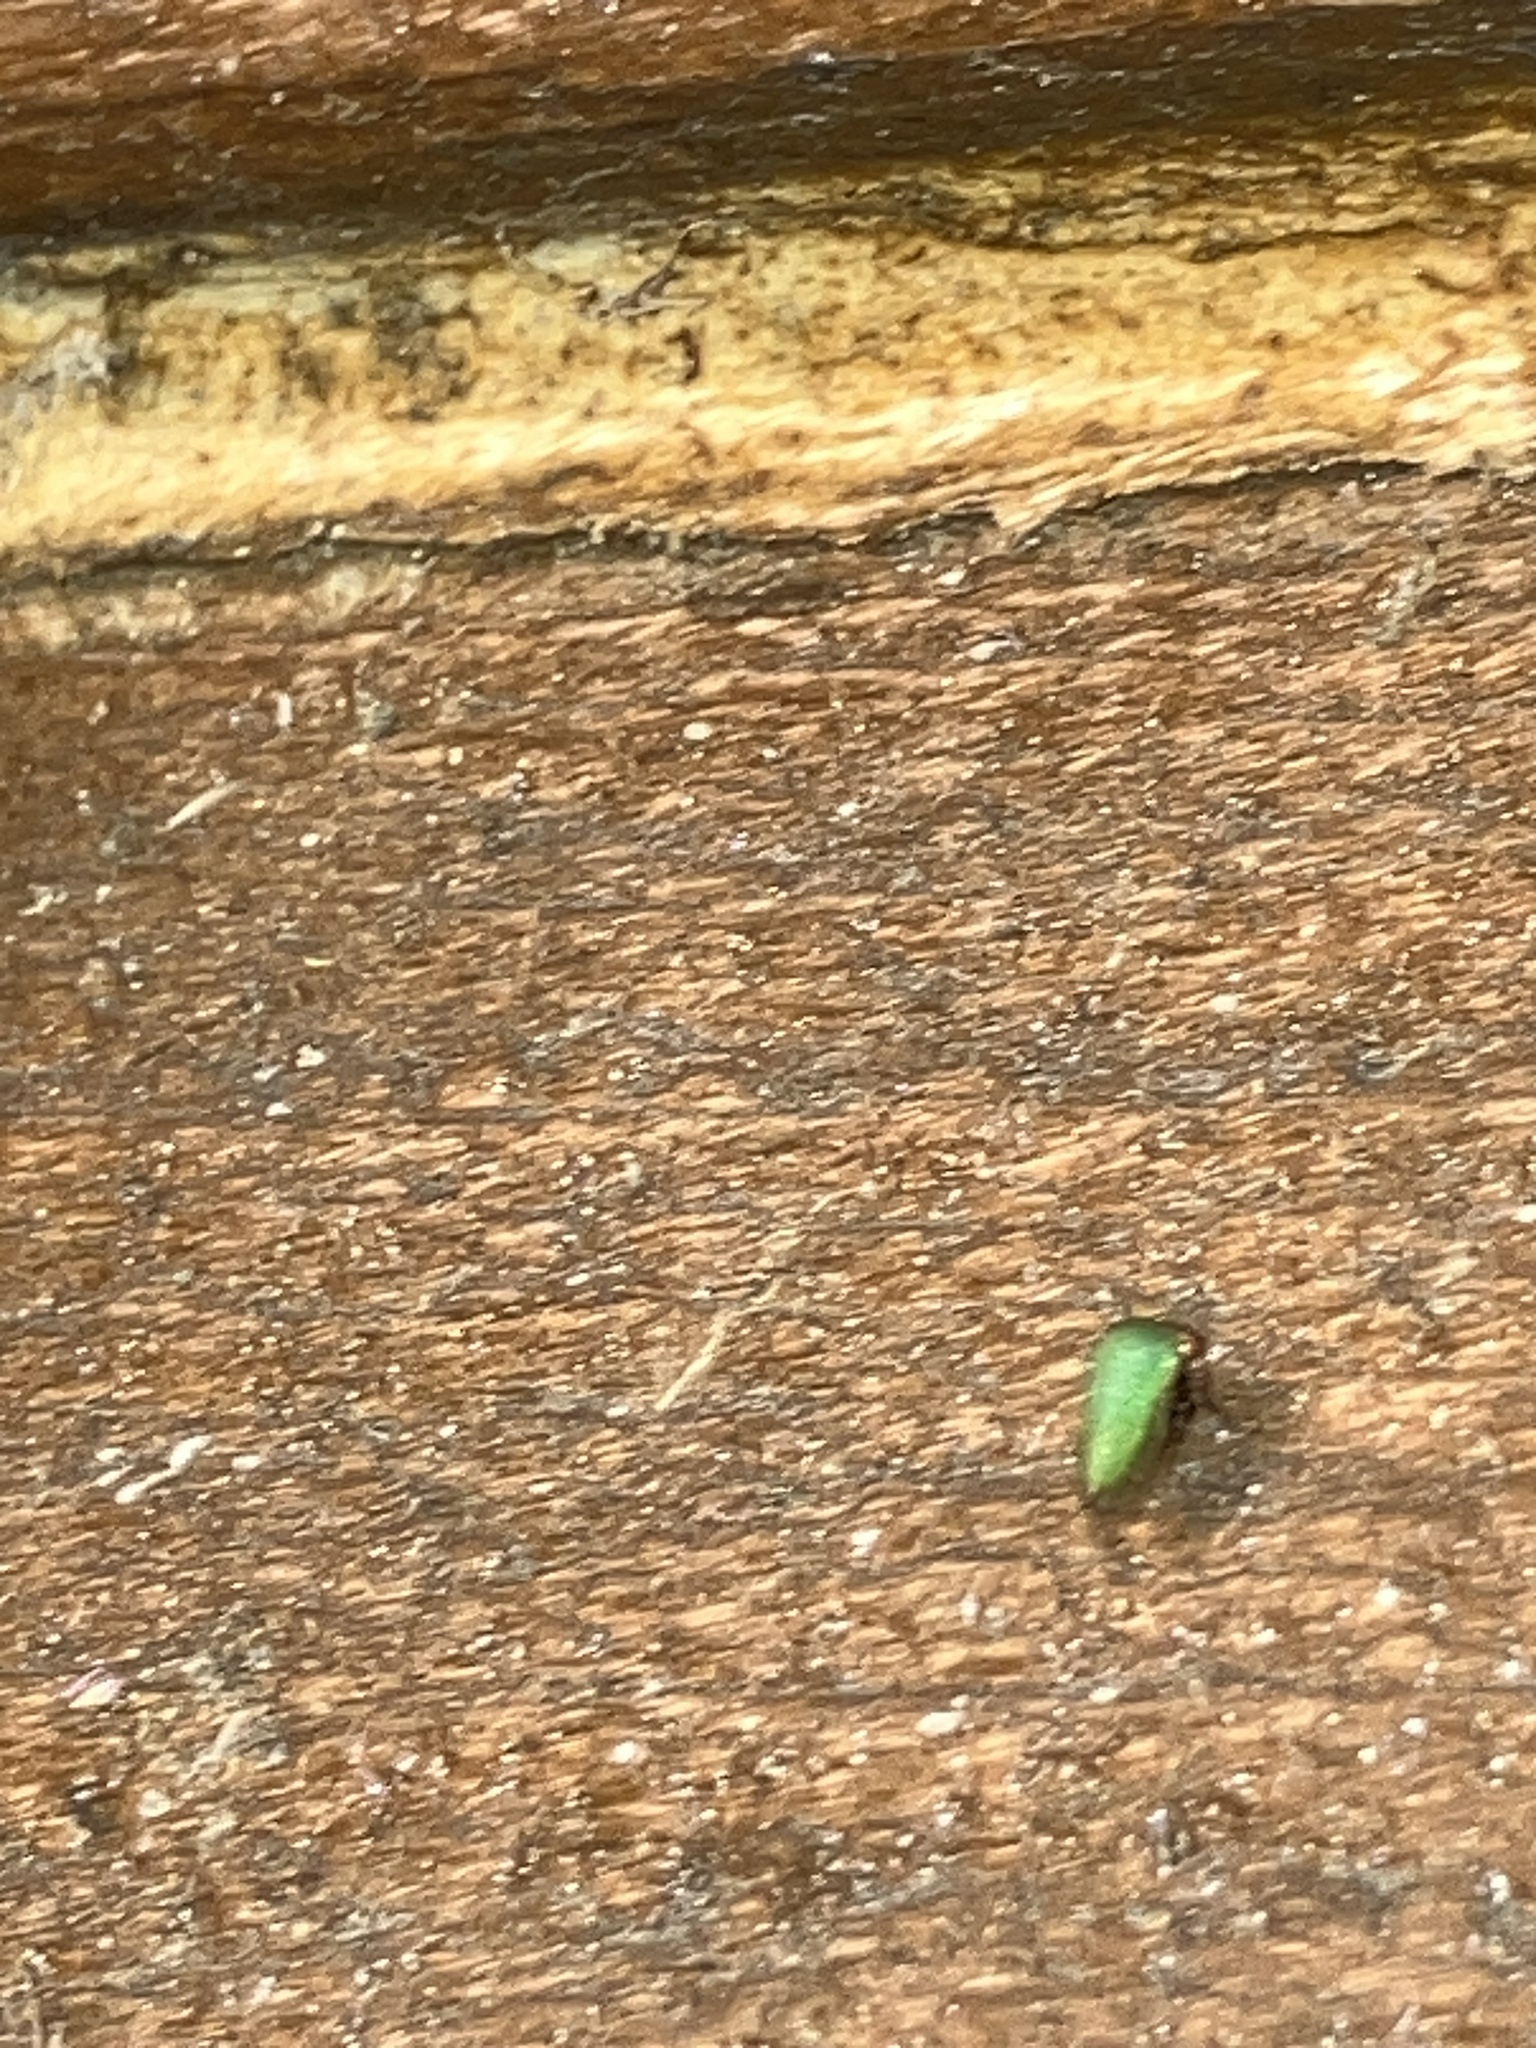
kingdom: Animalia
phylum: Arthropoda
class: Insecta
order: Hemiptera
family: Membracidae
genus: Idioderma
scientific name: Idioderma virescens
